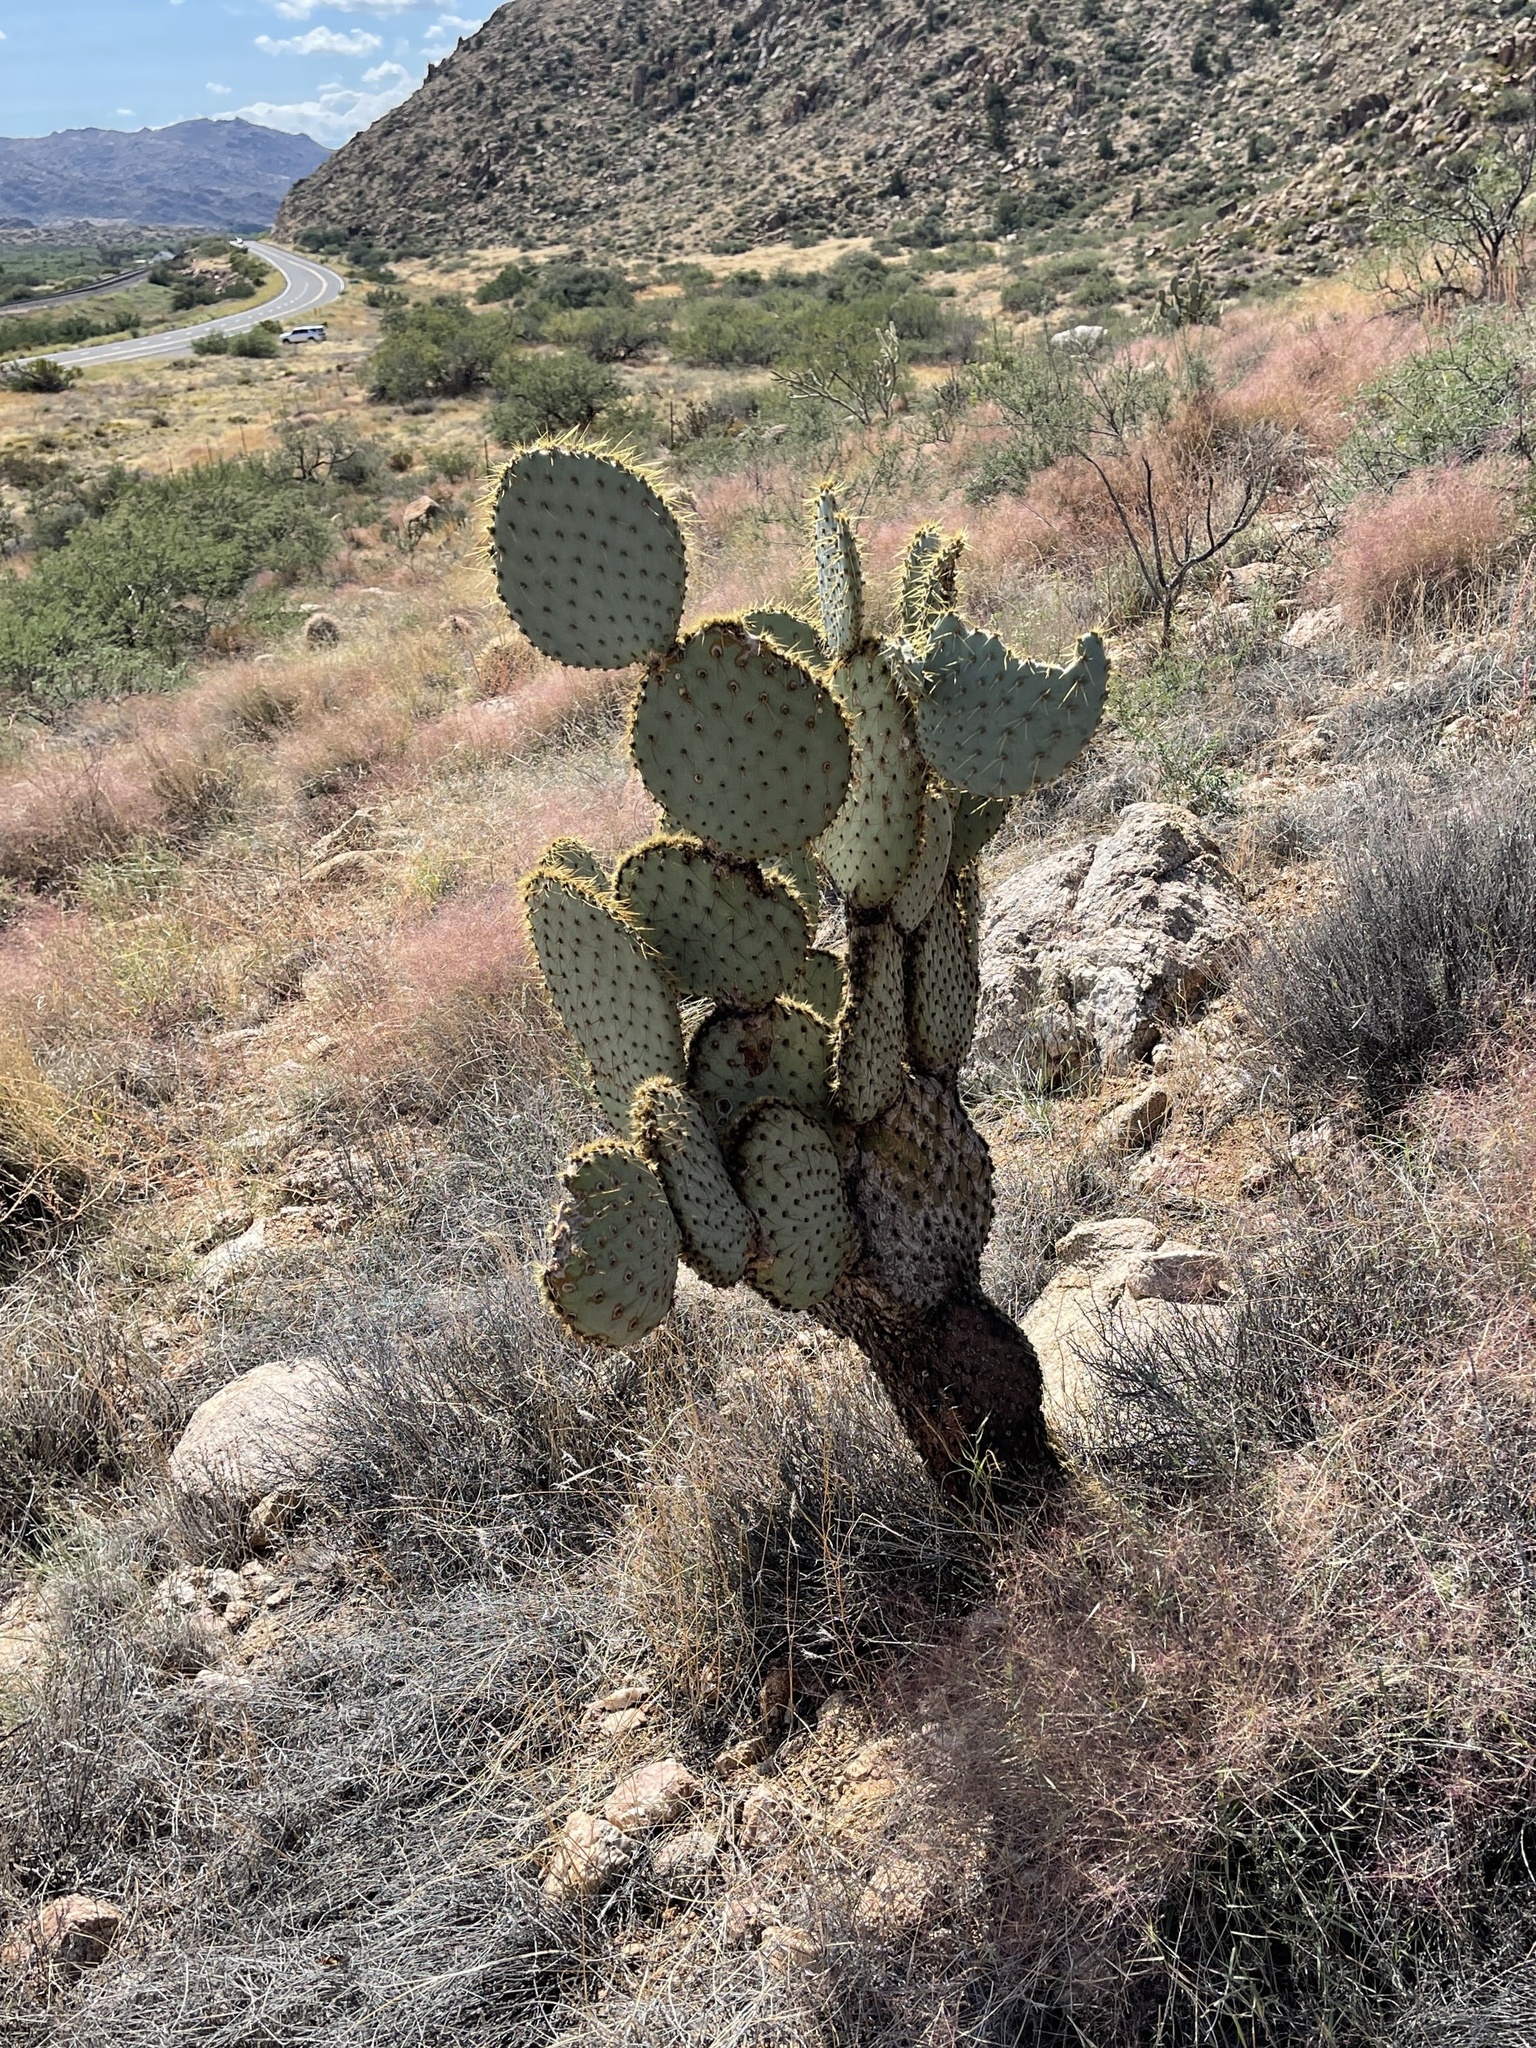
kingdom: Plantae
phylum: Tracheophyta
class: Magnoliopsida
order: Caryophyllales
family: Cactaceae
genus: Opuntia
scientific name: Opuntia chlorotica
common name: Dollar-joint prickly-pear
